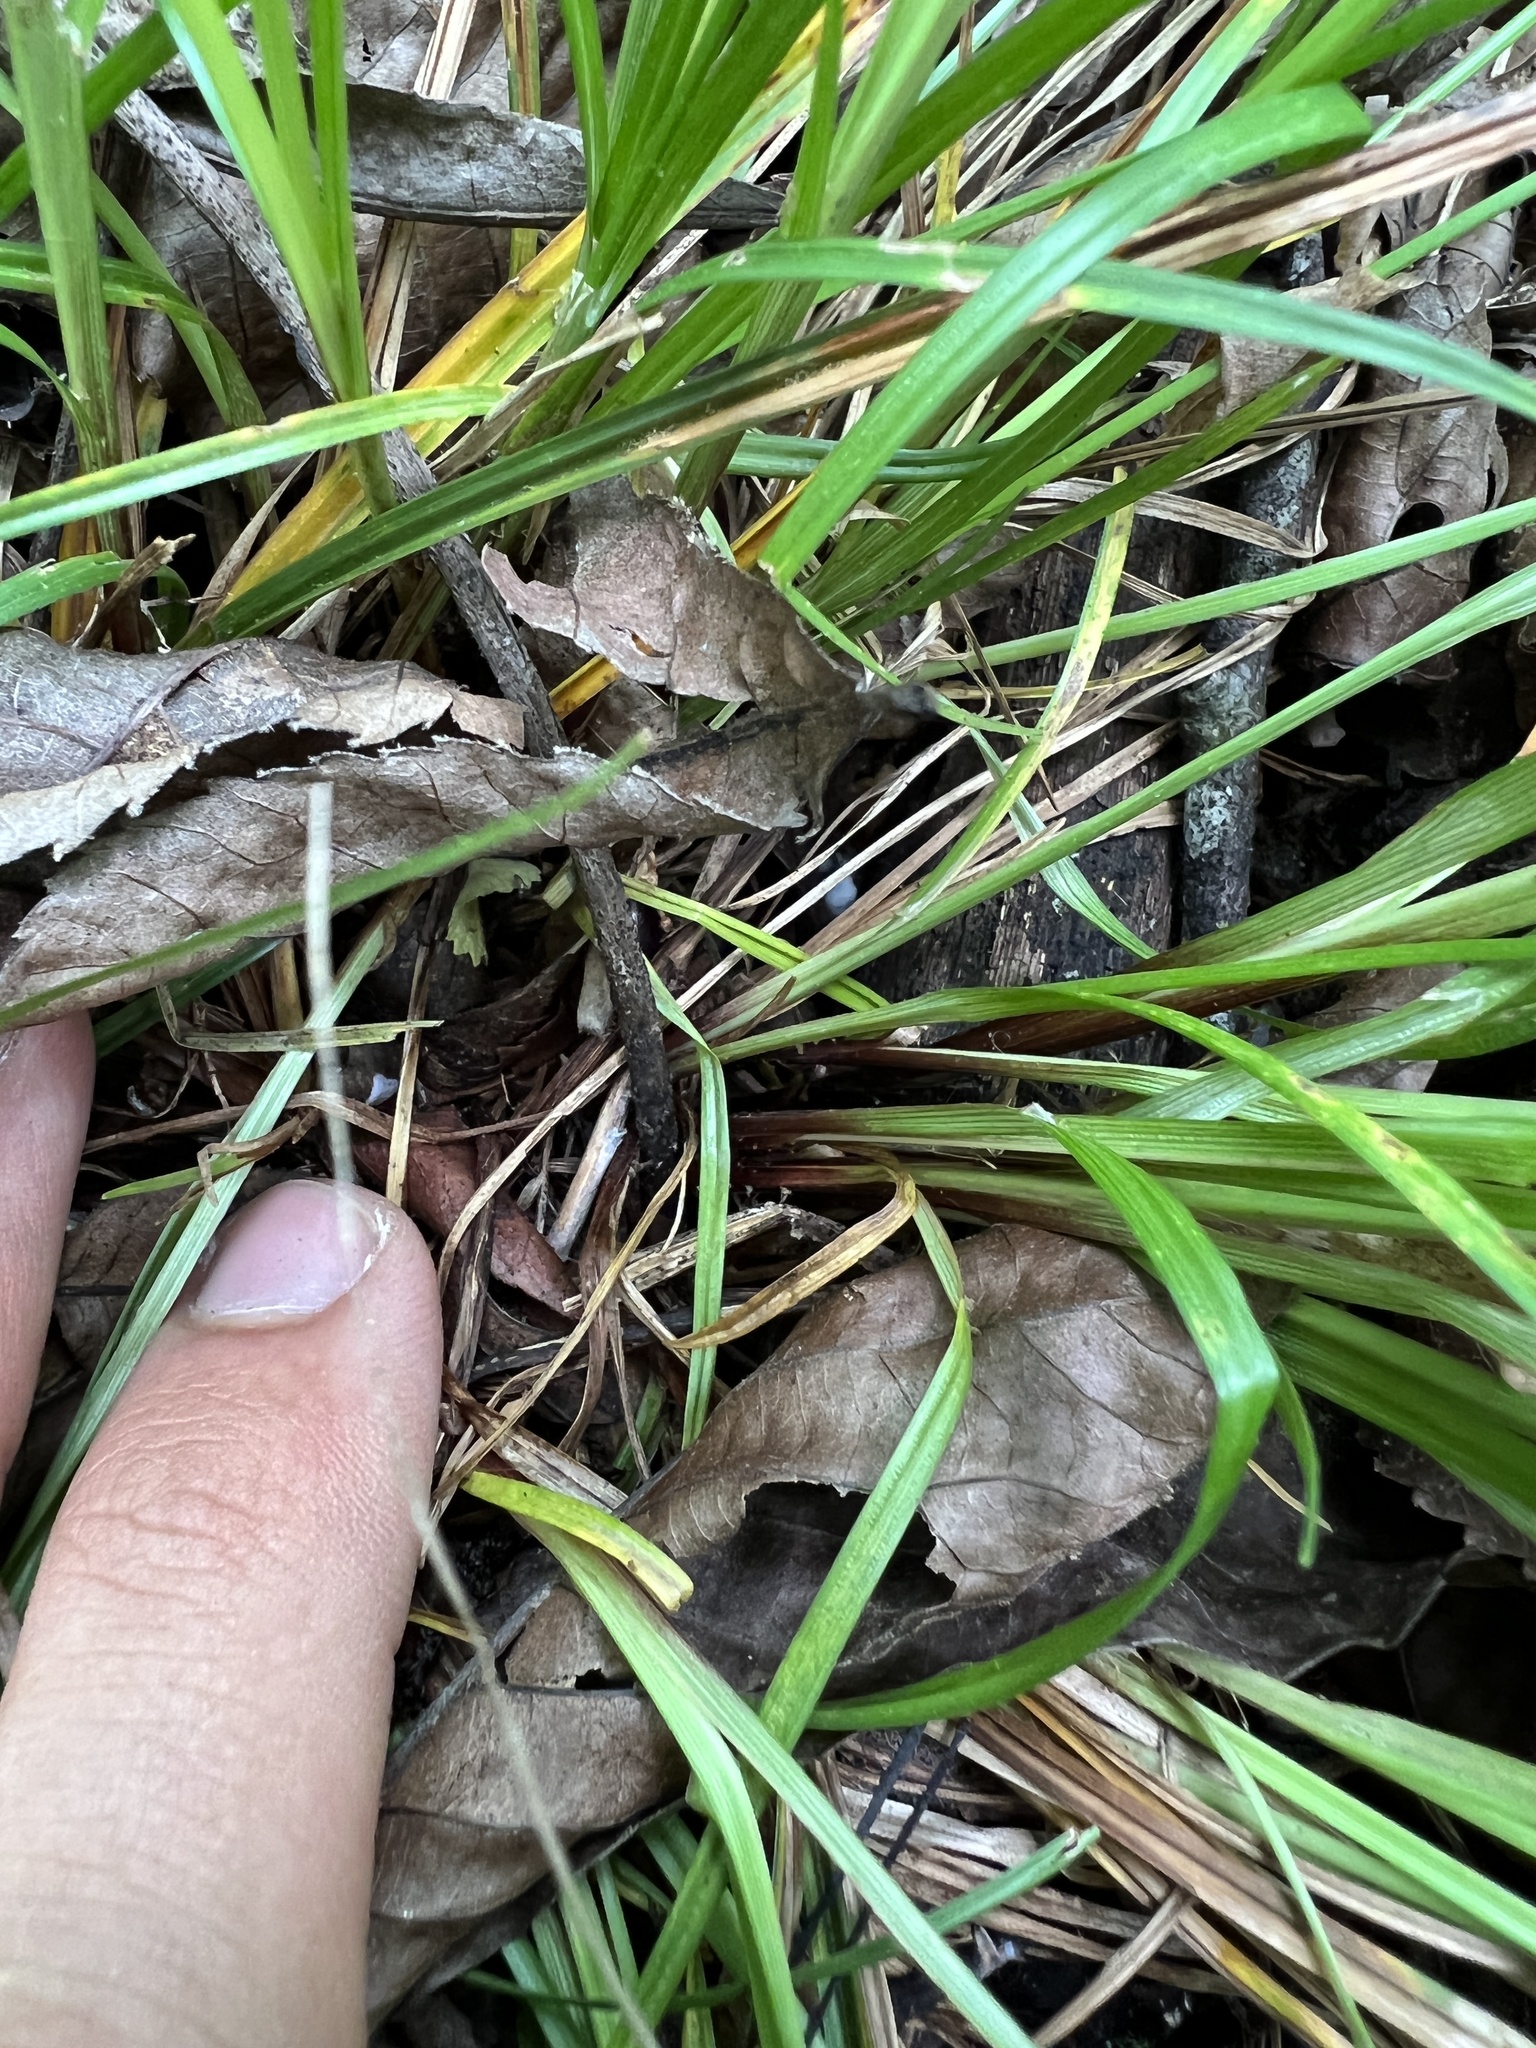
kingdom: Plantae
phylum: Tracheophyta
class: Liliopsida
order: Poales
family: Cyperaceae
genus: Carex
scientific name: Carex planispicata
